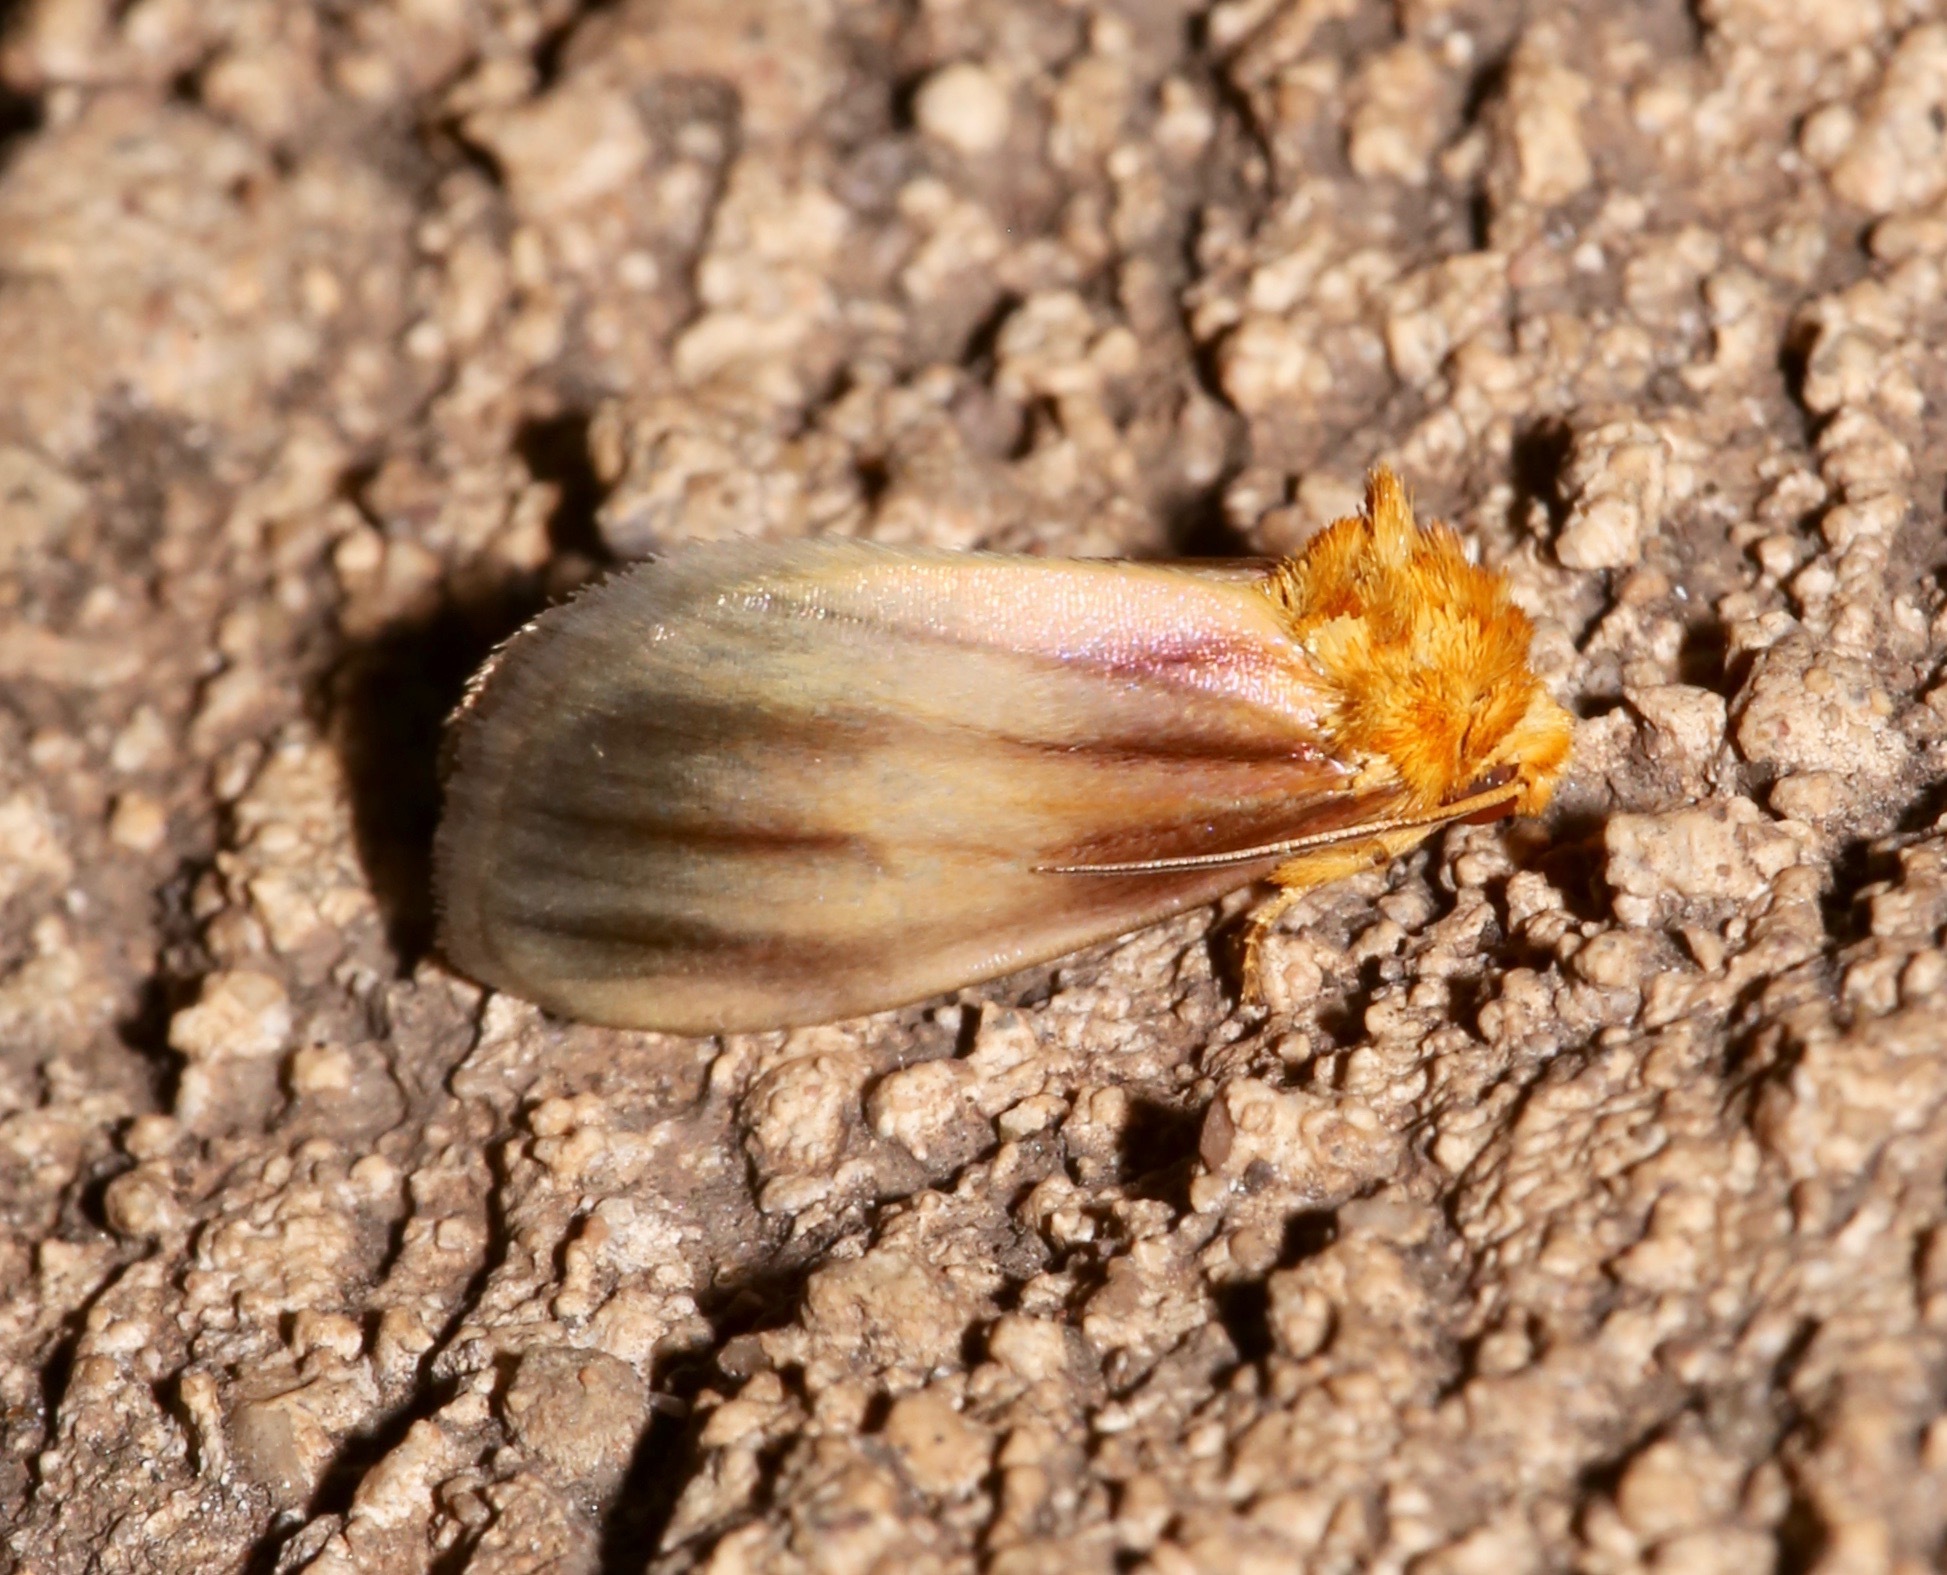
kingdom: Animalia
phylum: Arthropoda
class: Insecta
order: Lepidoptera
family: Noctuidae
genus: Antaplaga
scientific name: Antaplaga plesioglauca
